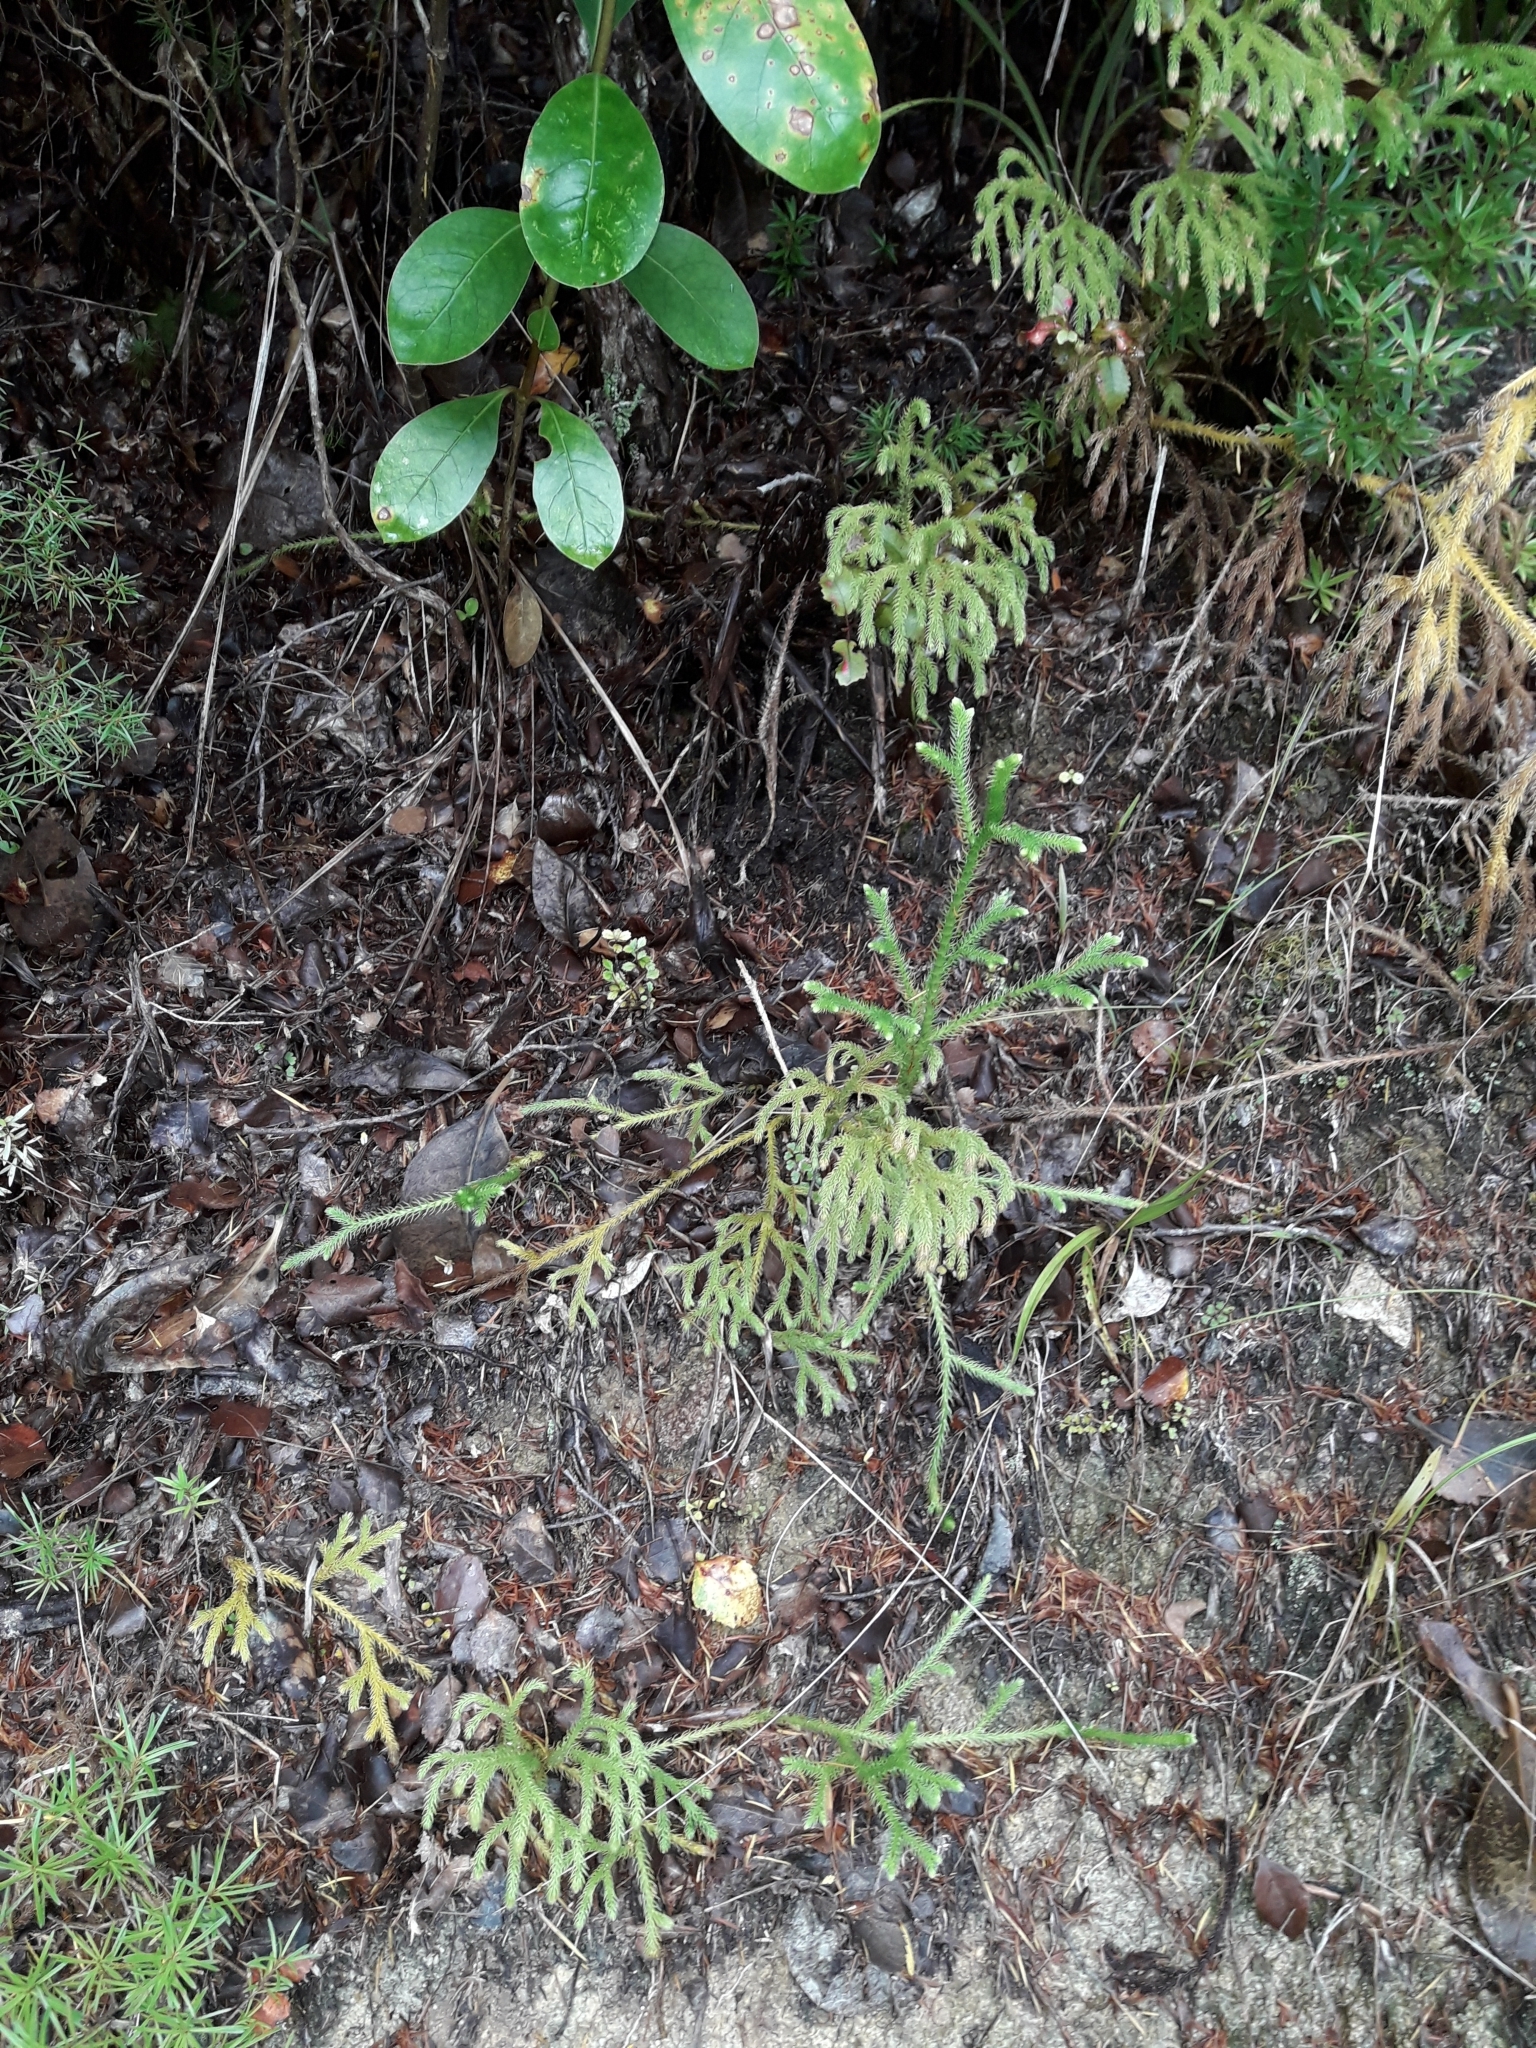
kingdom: Plantae
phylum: Tracheophyta
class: Lycopodiopsida
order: Lycopodiales
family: Lycopodiaceae
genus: Palhinhaea
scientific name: Palhinhaea cernua
